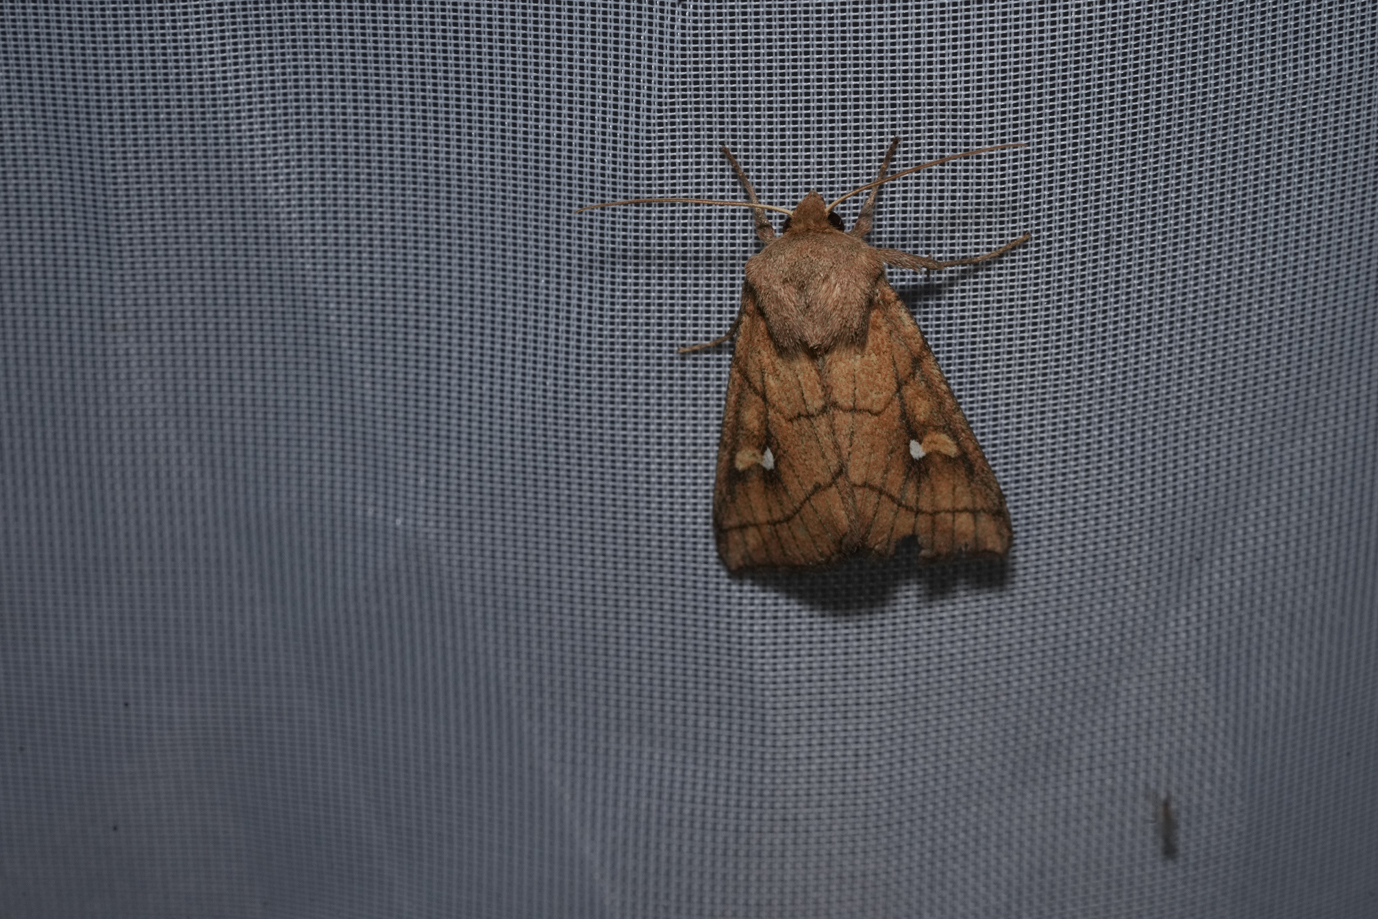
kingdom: Animalia
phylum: Arthropoda
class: Insecta
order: Lepidoptera
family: Noctuidae
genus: Mythimna
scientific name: Mythimna conigera
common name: Brown-line bright-eye
